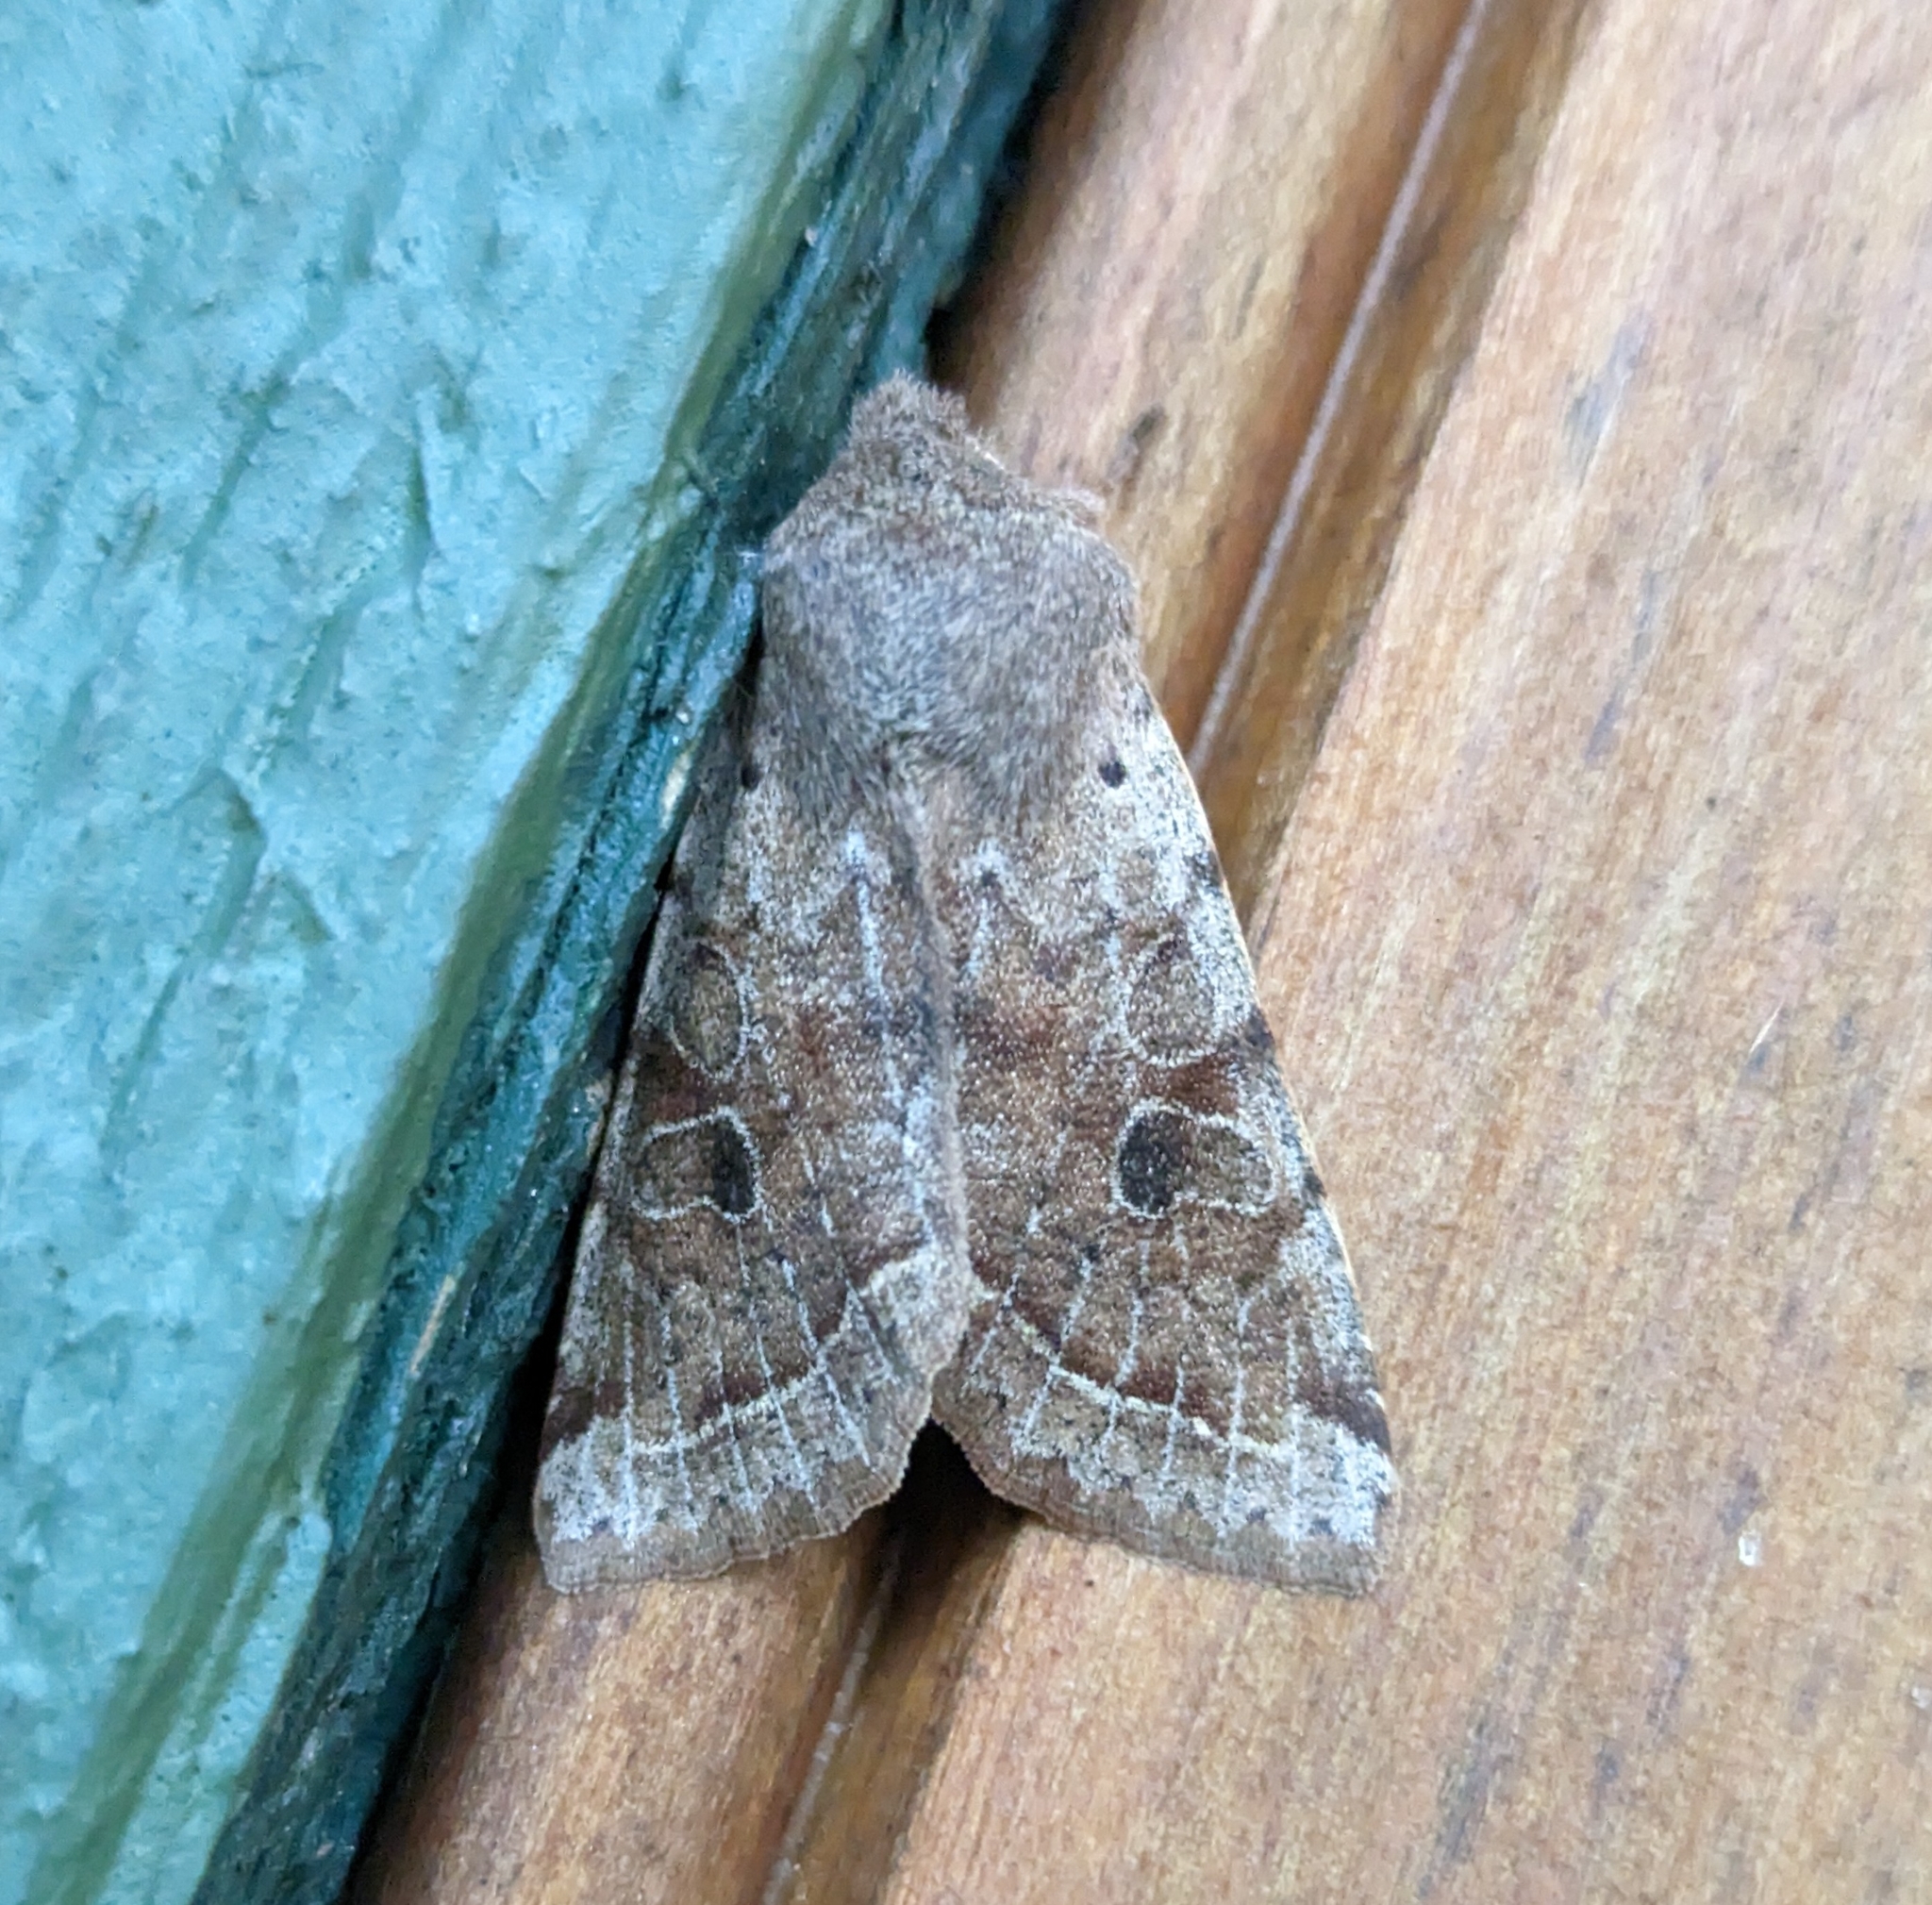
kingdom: Animalia
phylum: Arthropoda
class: Insecta
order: Lepidoptera
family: Noctuidae
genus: Orthosia
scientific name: Orthosia hibisci
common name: Green fruitworm
